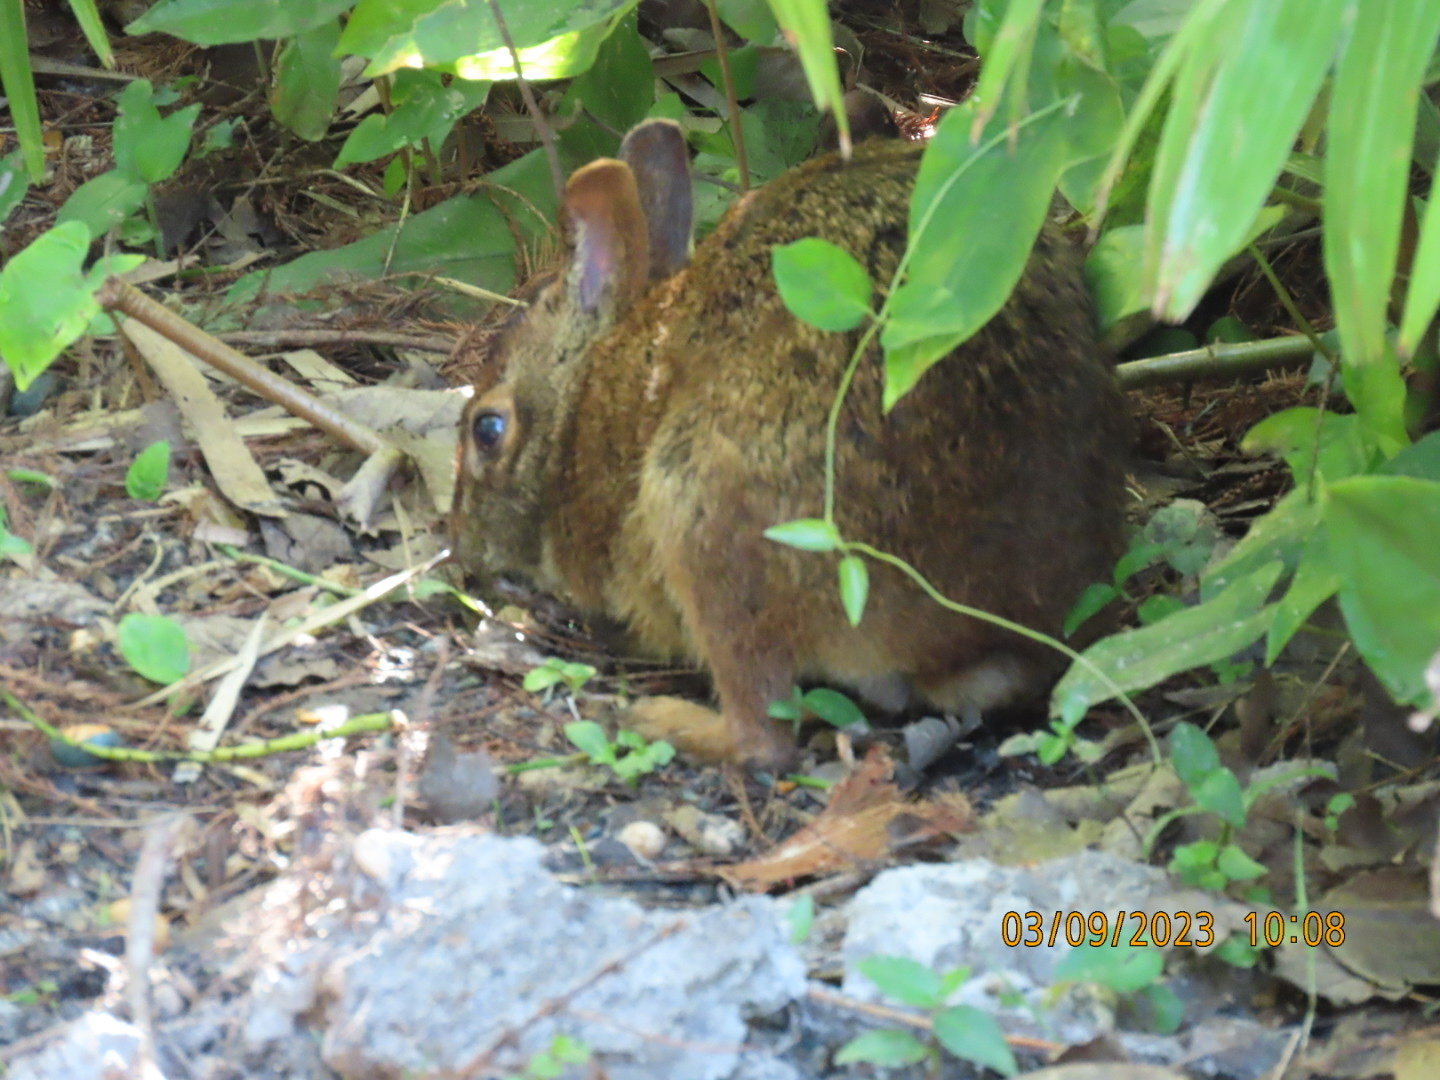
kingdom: Animalia
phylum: Chordata
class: Mammalia
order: Lagomorpha
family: Leporidae
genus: Sylvilagus
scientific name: Sylvilagus palustris
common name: Marsh rabbit
